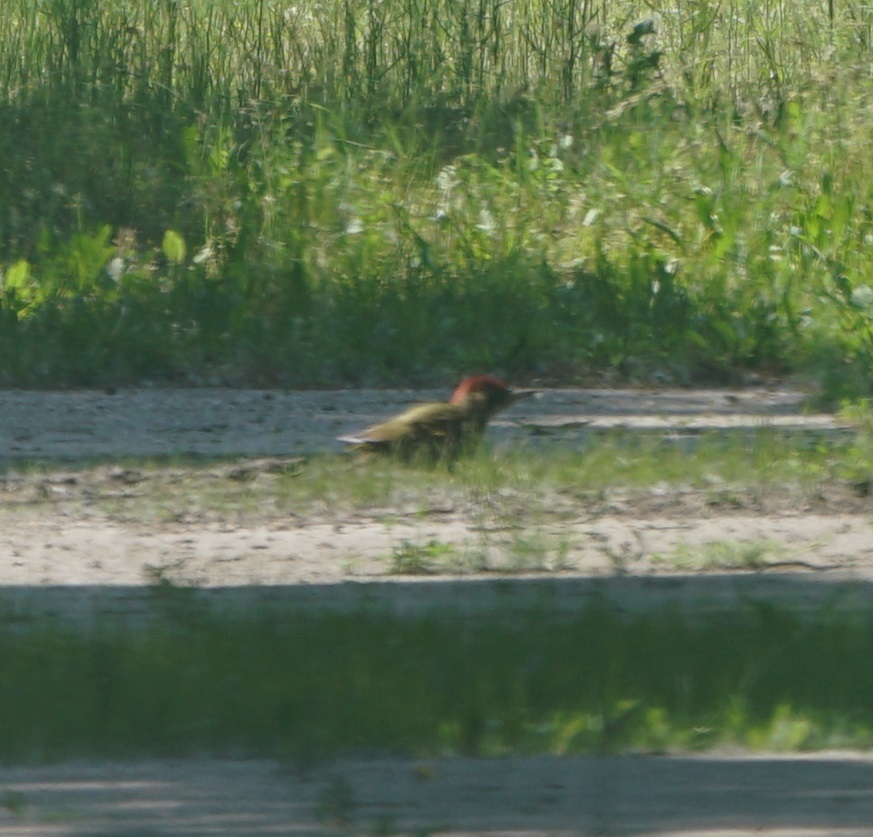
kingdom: Animalia
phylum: Chordata
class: Aves
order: Piciformes
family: Picidae
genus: Picus
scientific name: Picus viridis
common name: European green woodpecker
